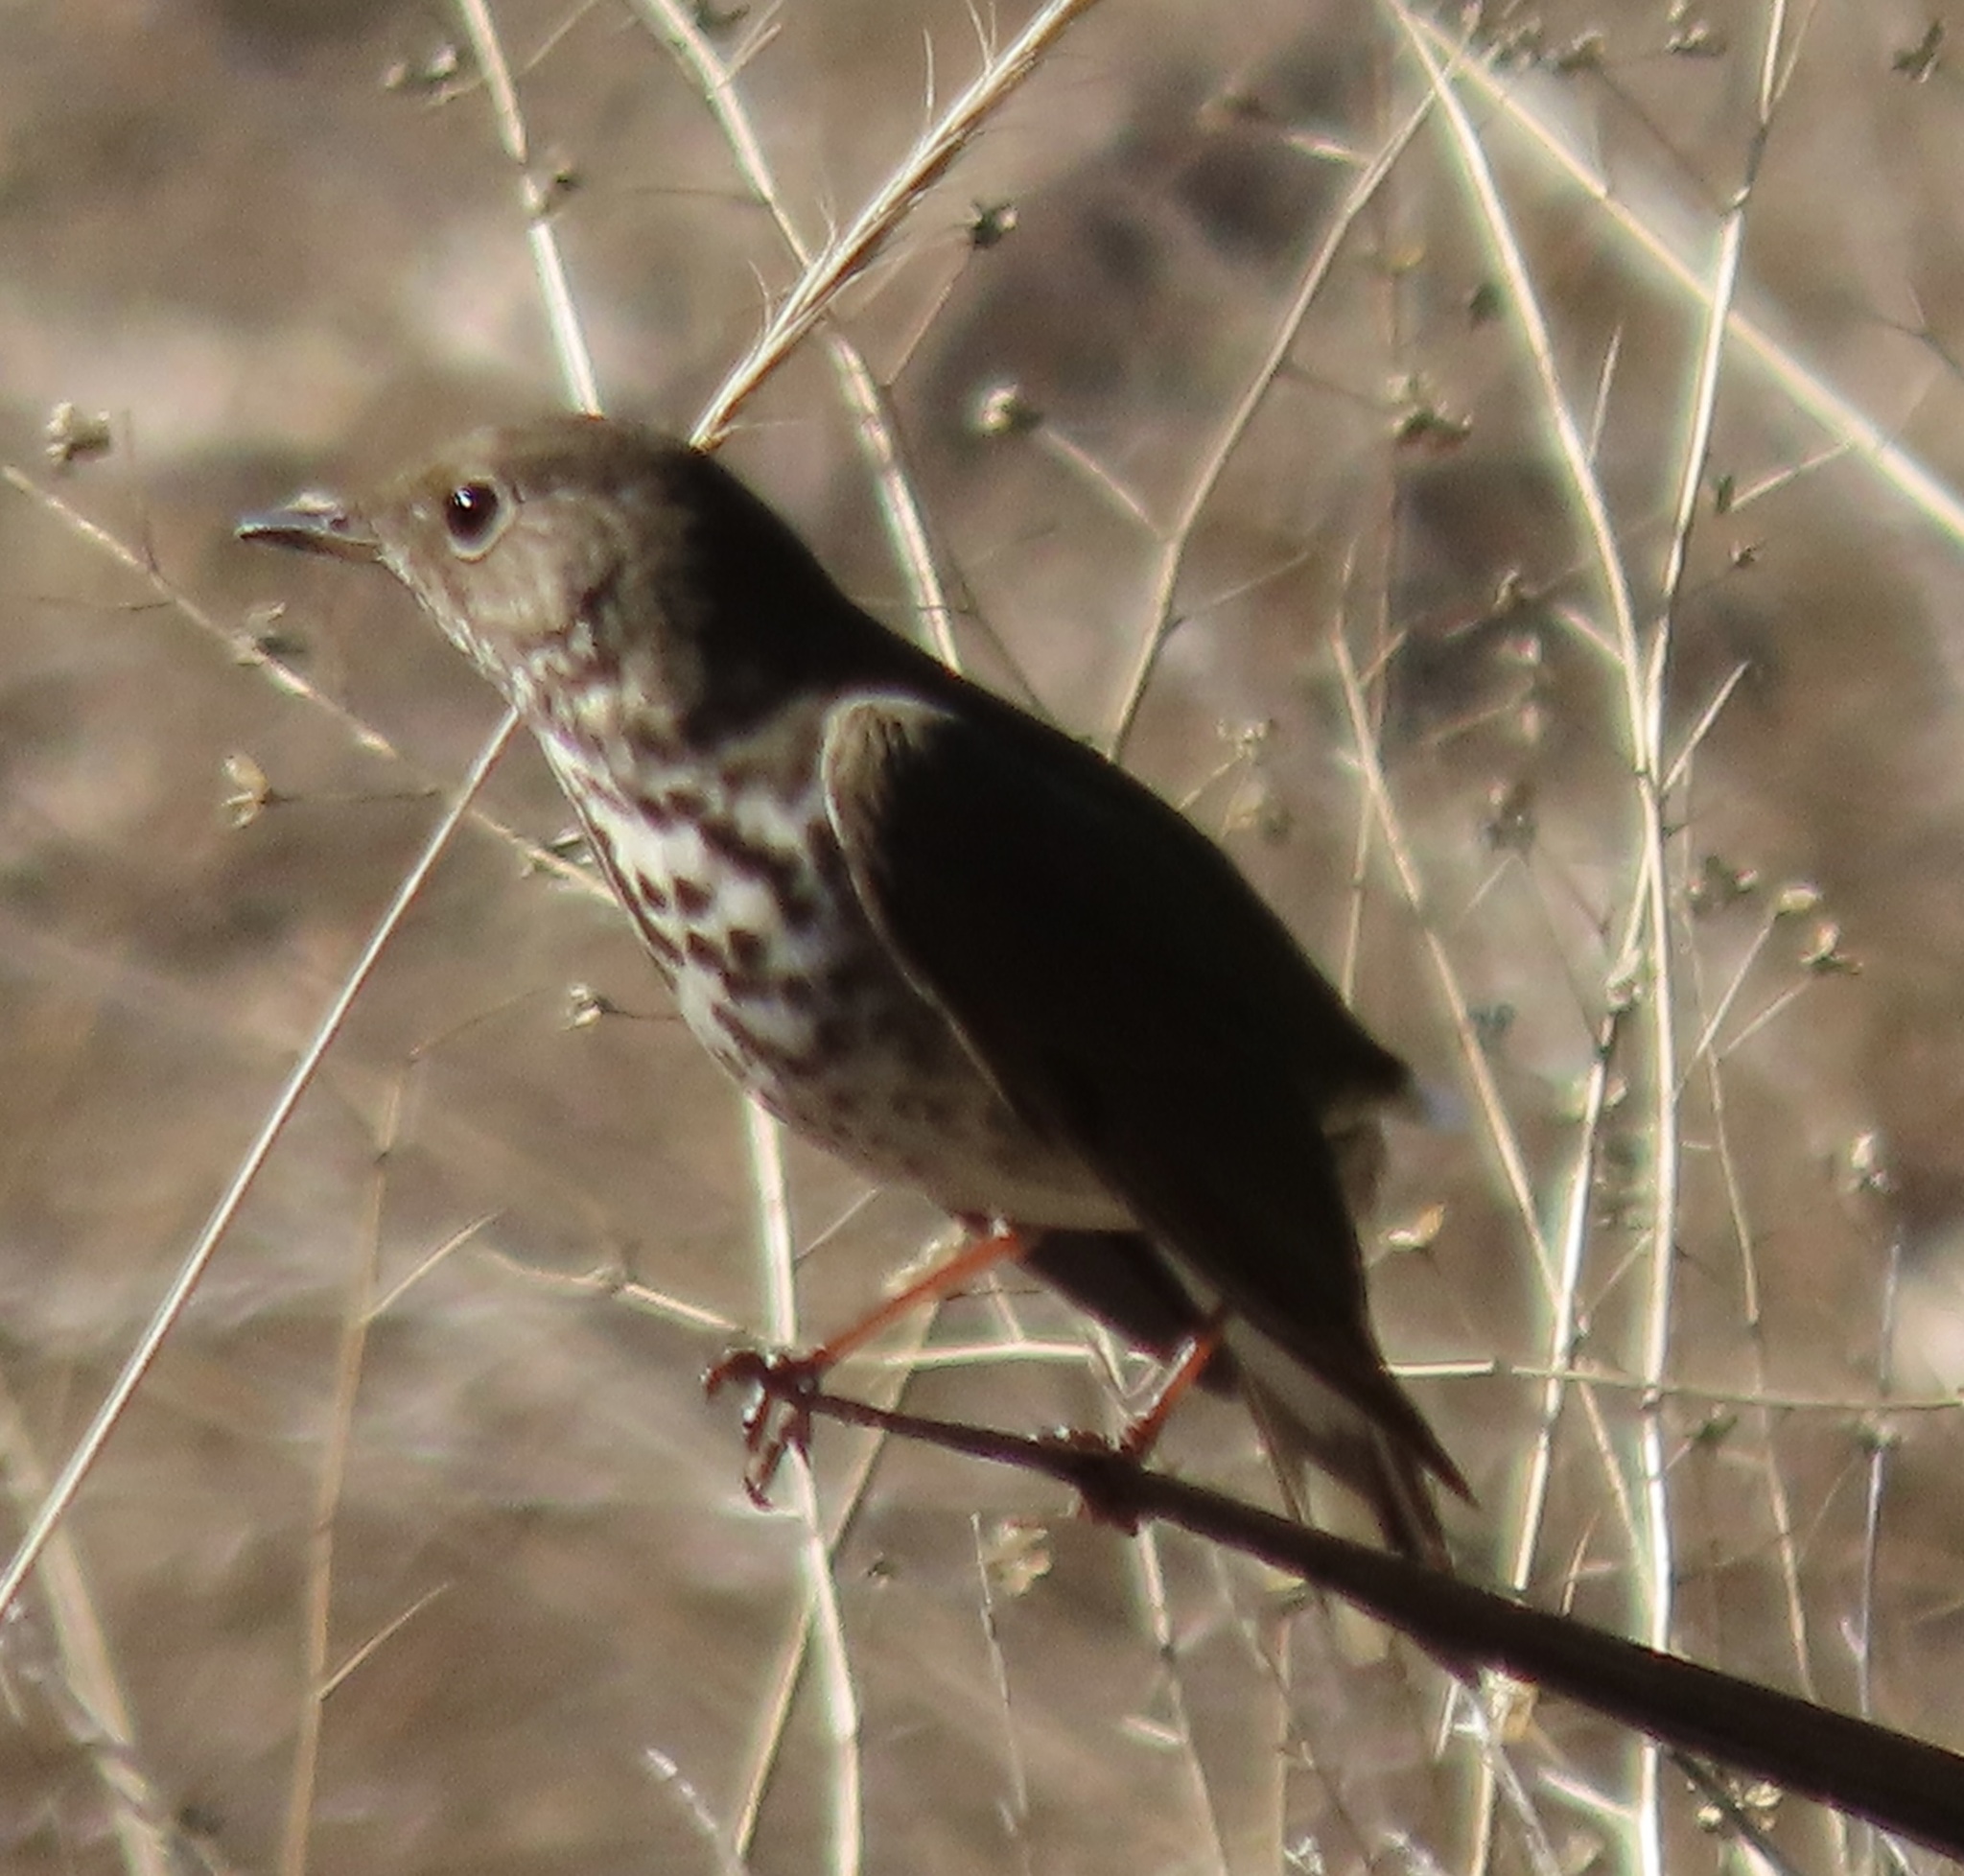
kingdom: Animalia
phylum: Chordata
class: Aves
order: Passeriformes
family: Turdidae
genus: Catharus
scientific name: Catharus guttatus
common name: Hermit thrush
